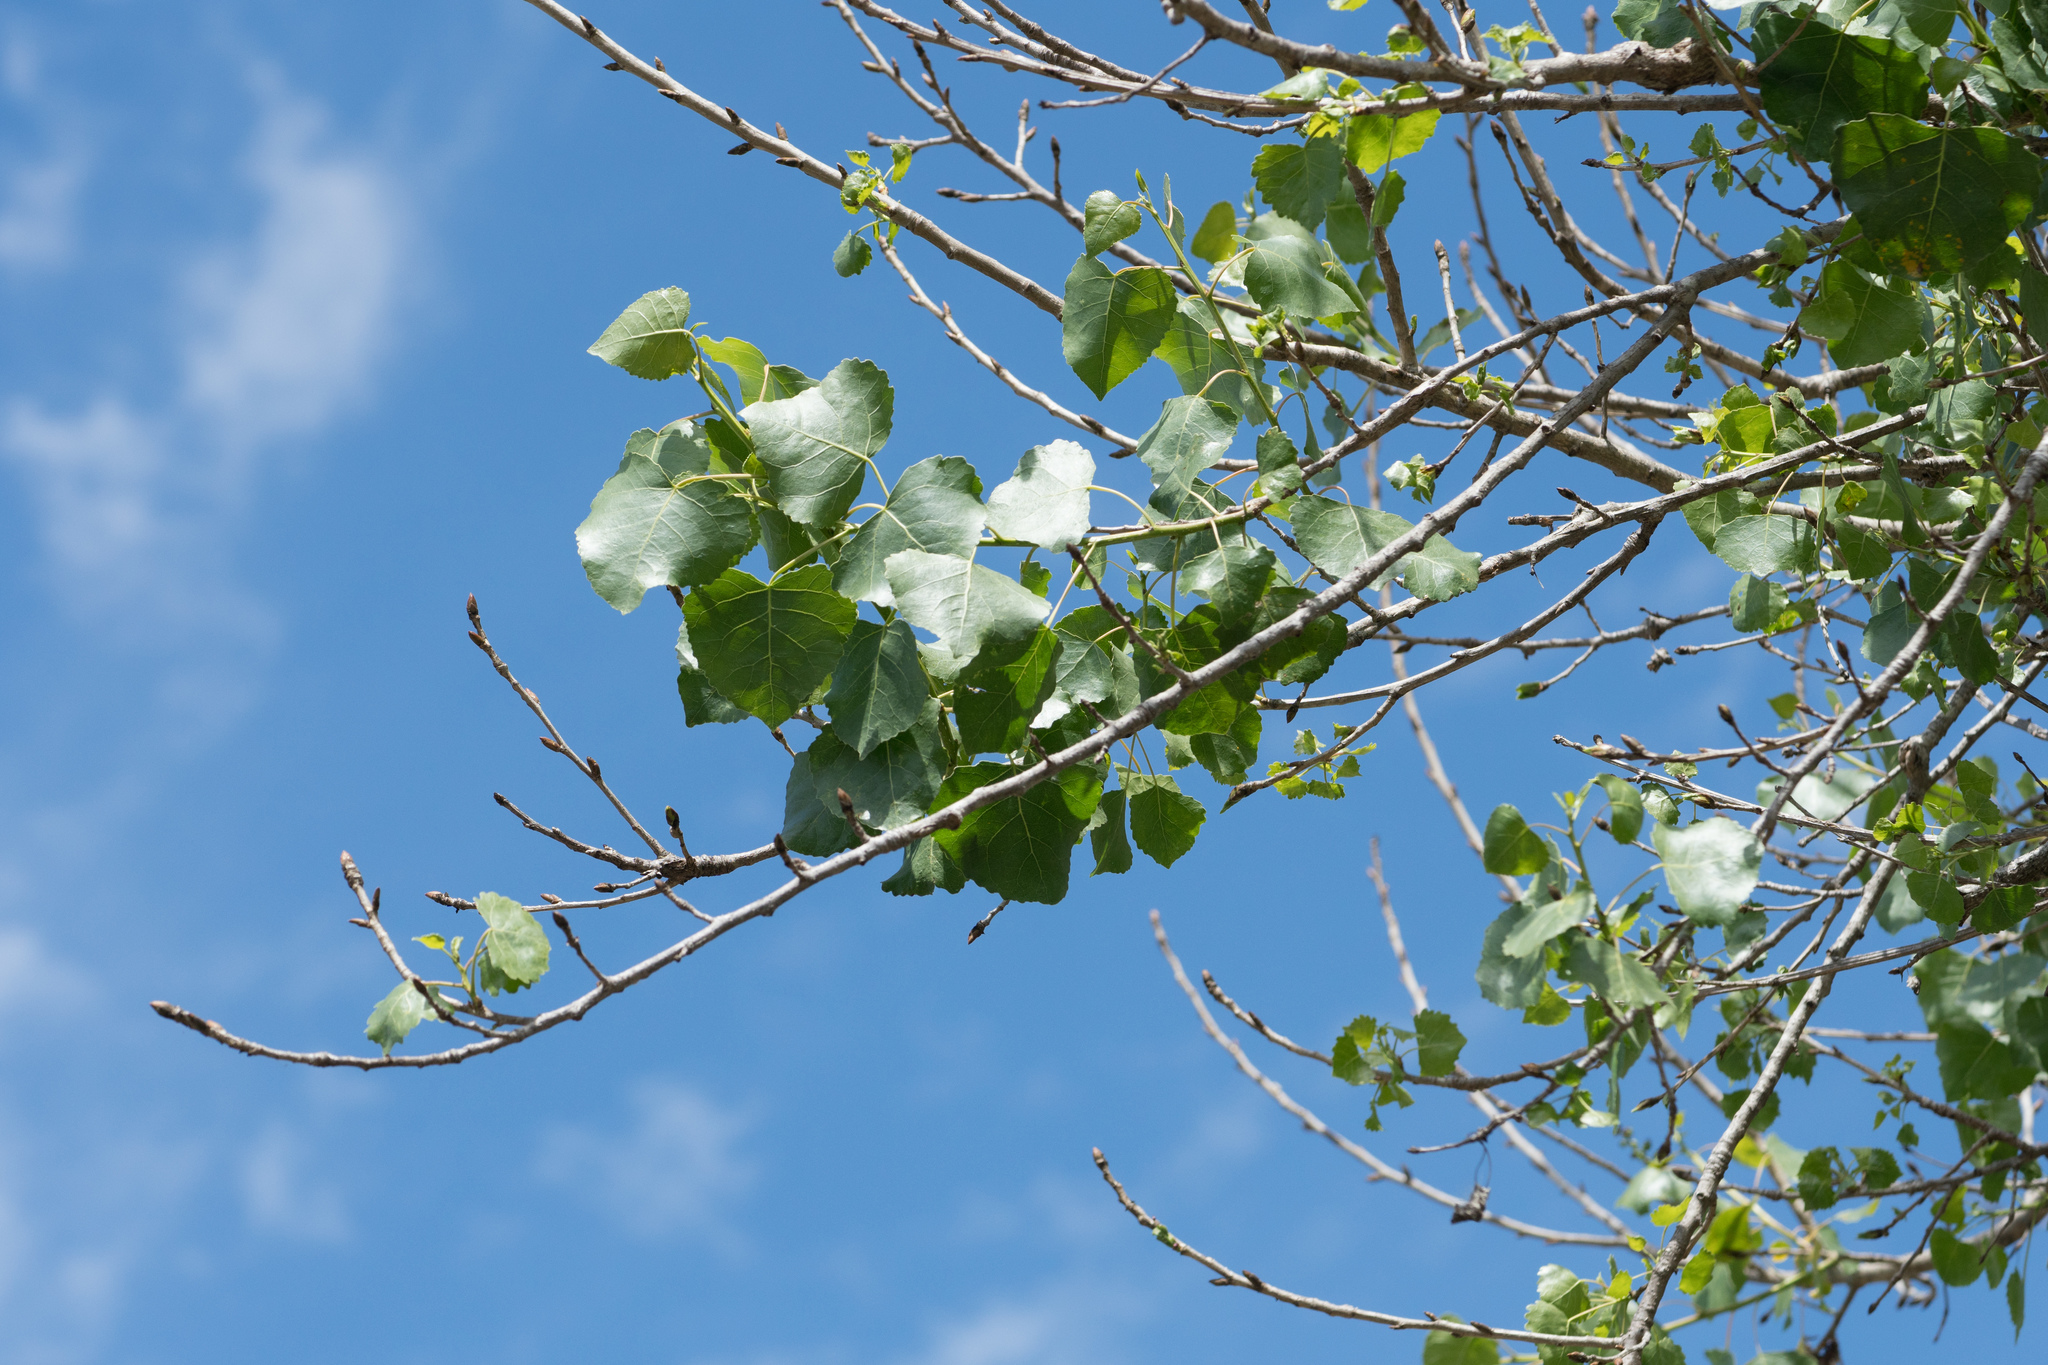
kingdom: Plantae
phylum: Tracheophyta
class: Magnoliopsida
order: Malpighiales
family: Salicaceae
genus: Populus
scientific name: Populus fremontii
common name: Fremont's cottonwood
